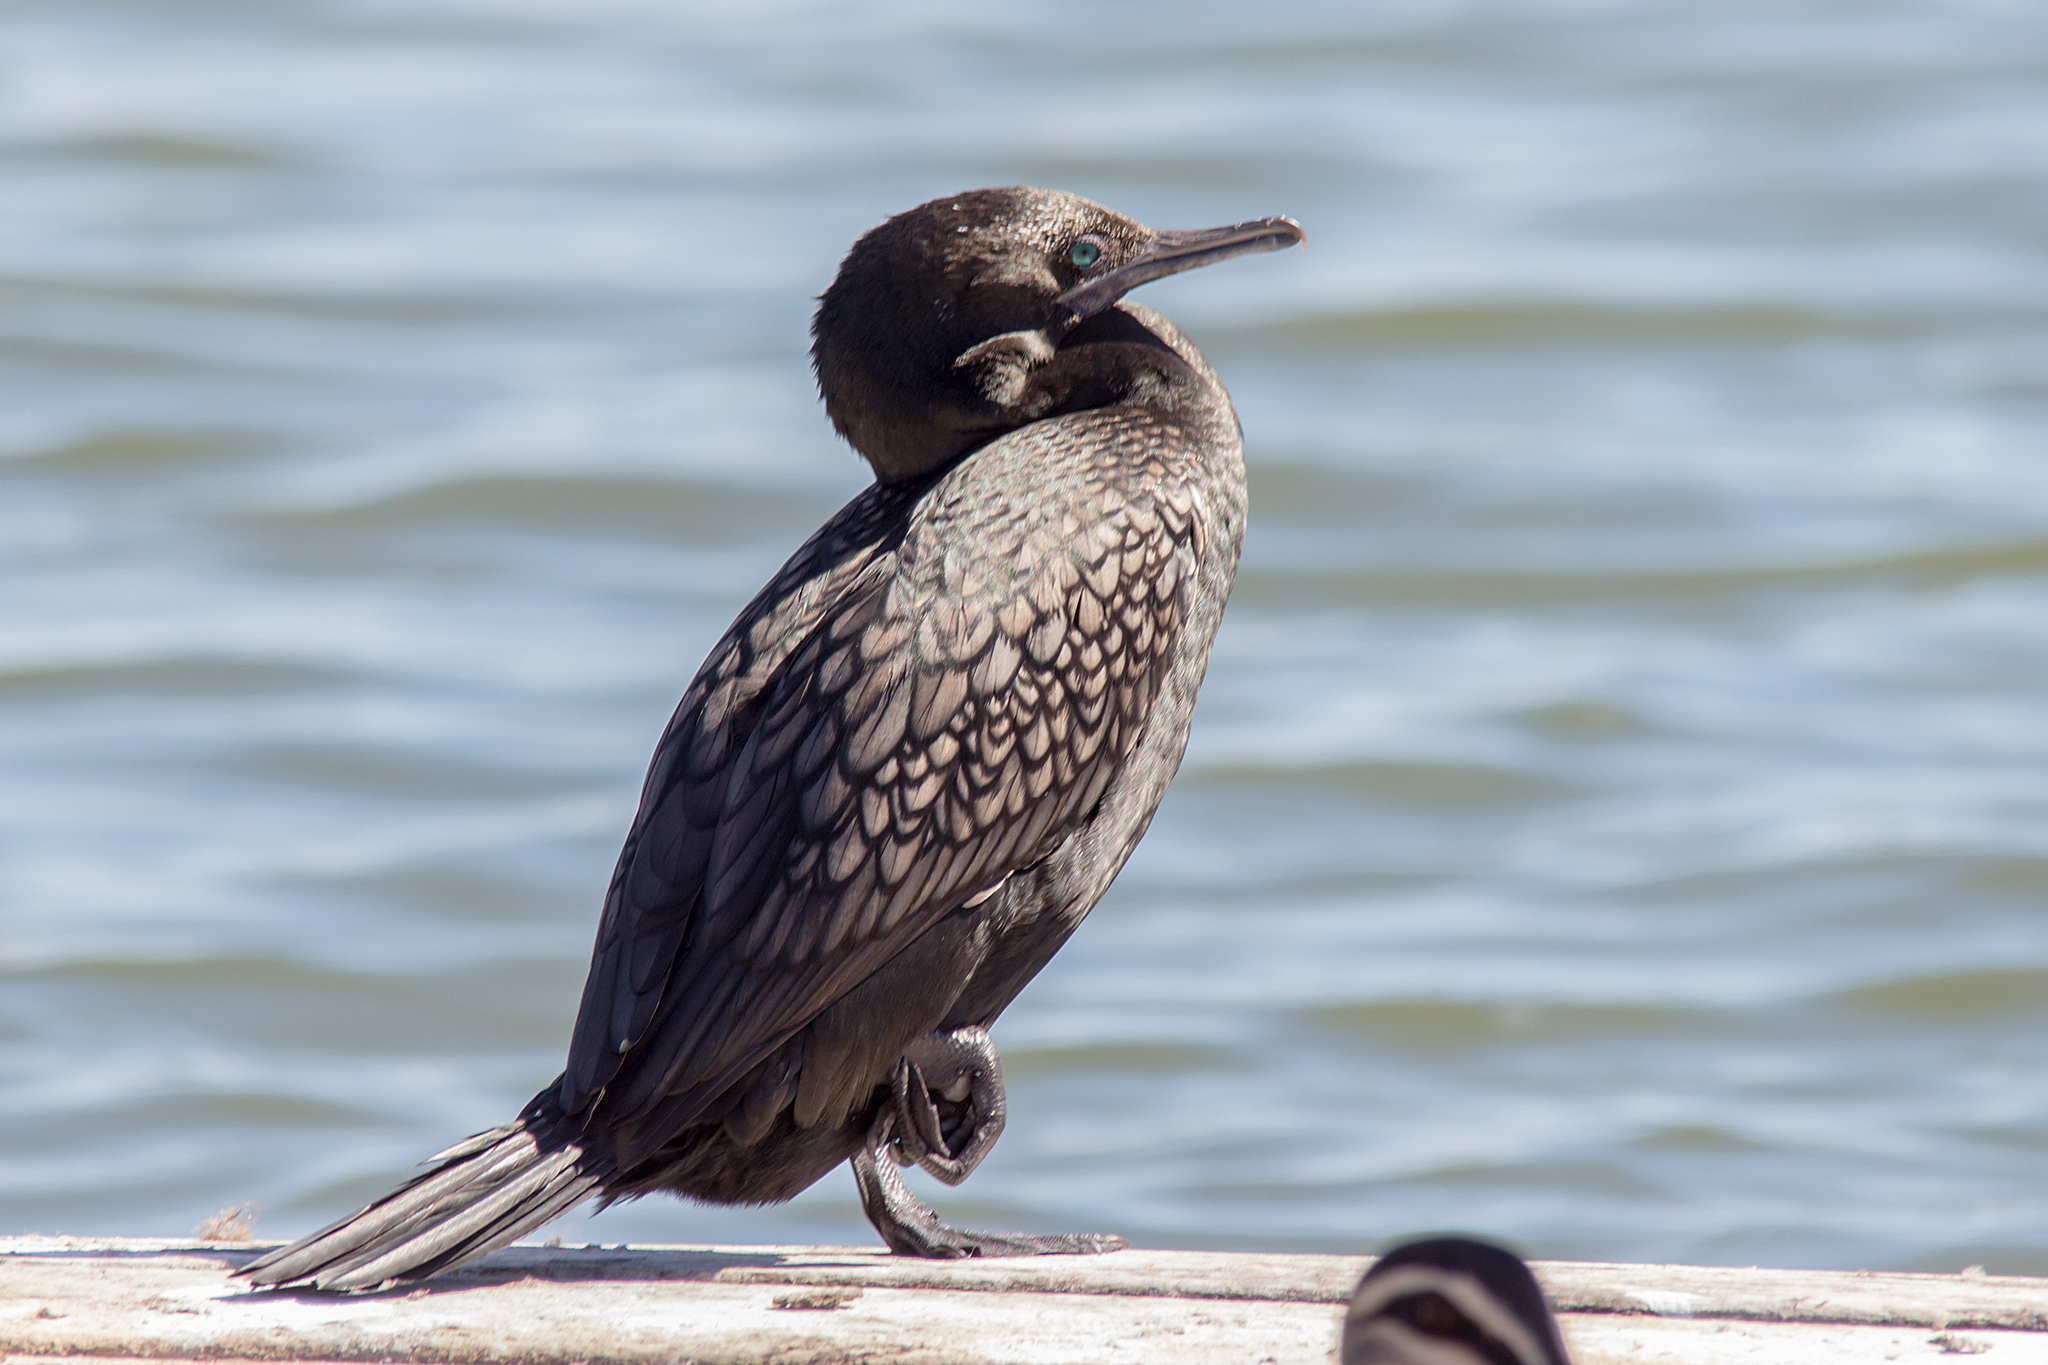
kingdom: Animalia
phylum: Chordata
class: Aves
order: Suliformes
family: Phalacrocoracidae
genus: Phalacrocorax
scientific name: Phalacrocorax sulcirostris
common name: Little black cormorant
